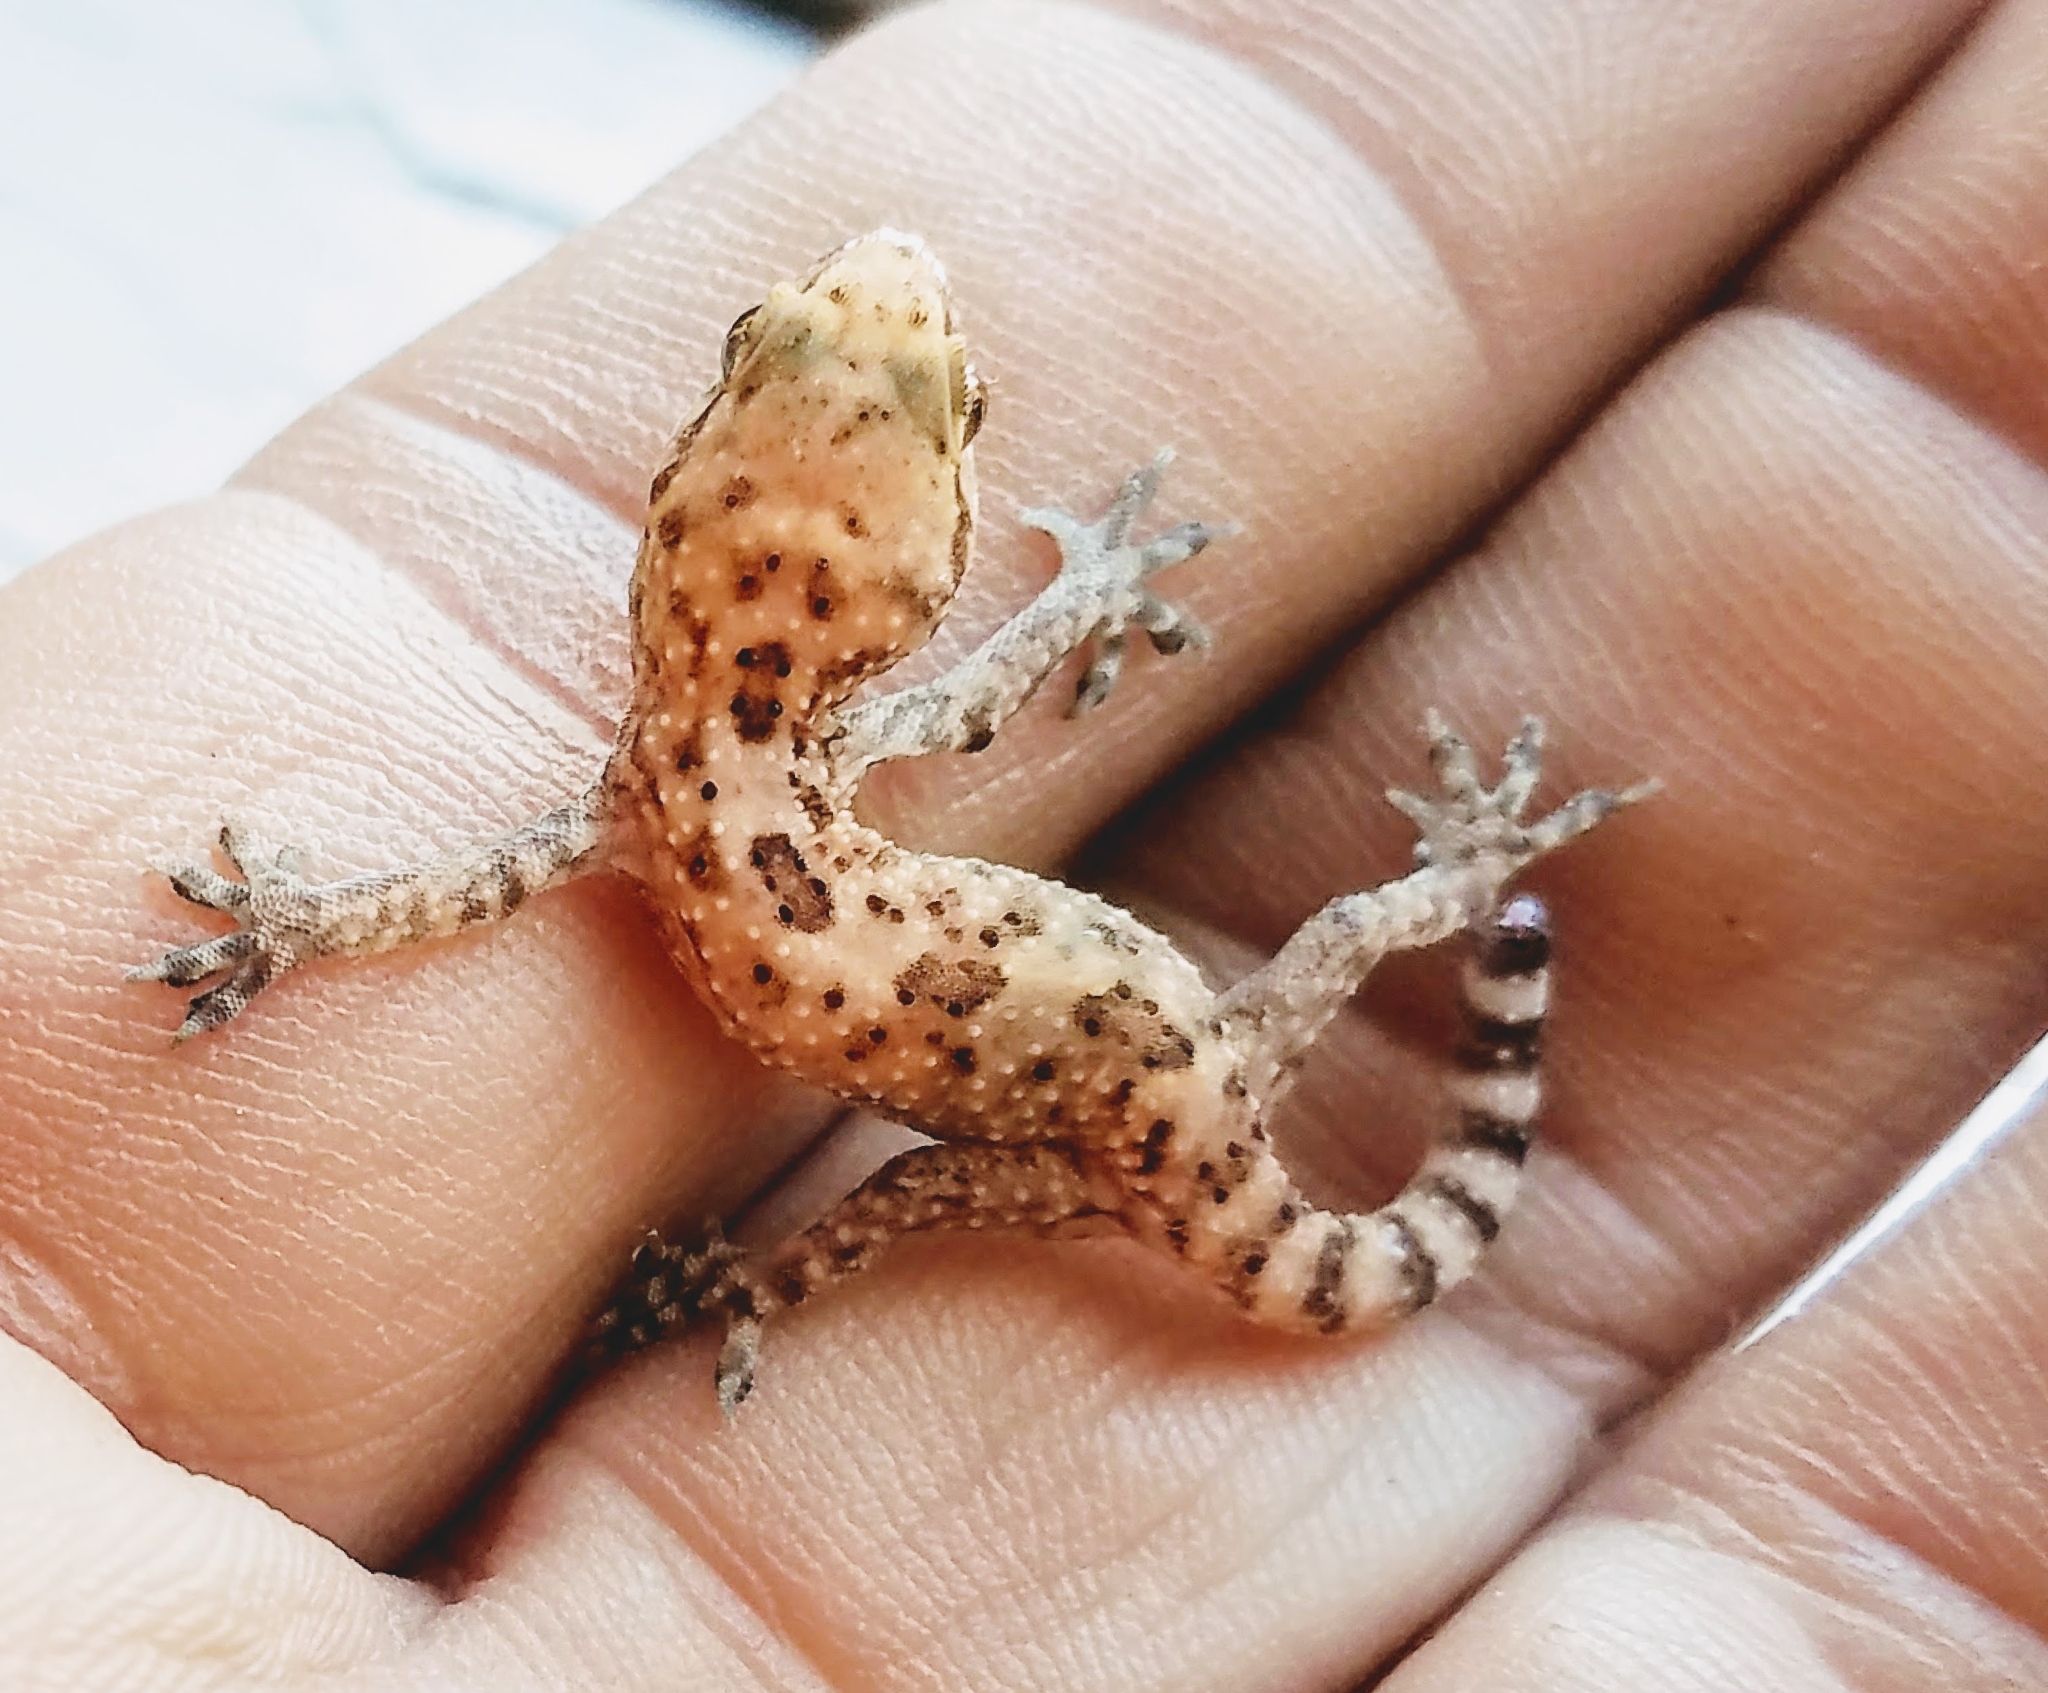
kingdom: Animalia
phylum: Chordata
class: Squamata
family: Gekkonidae
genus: Hemidactylus
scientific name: Hemidactylus turcicus
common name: Turkish gecko
